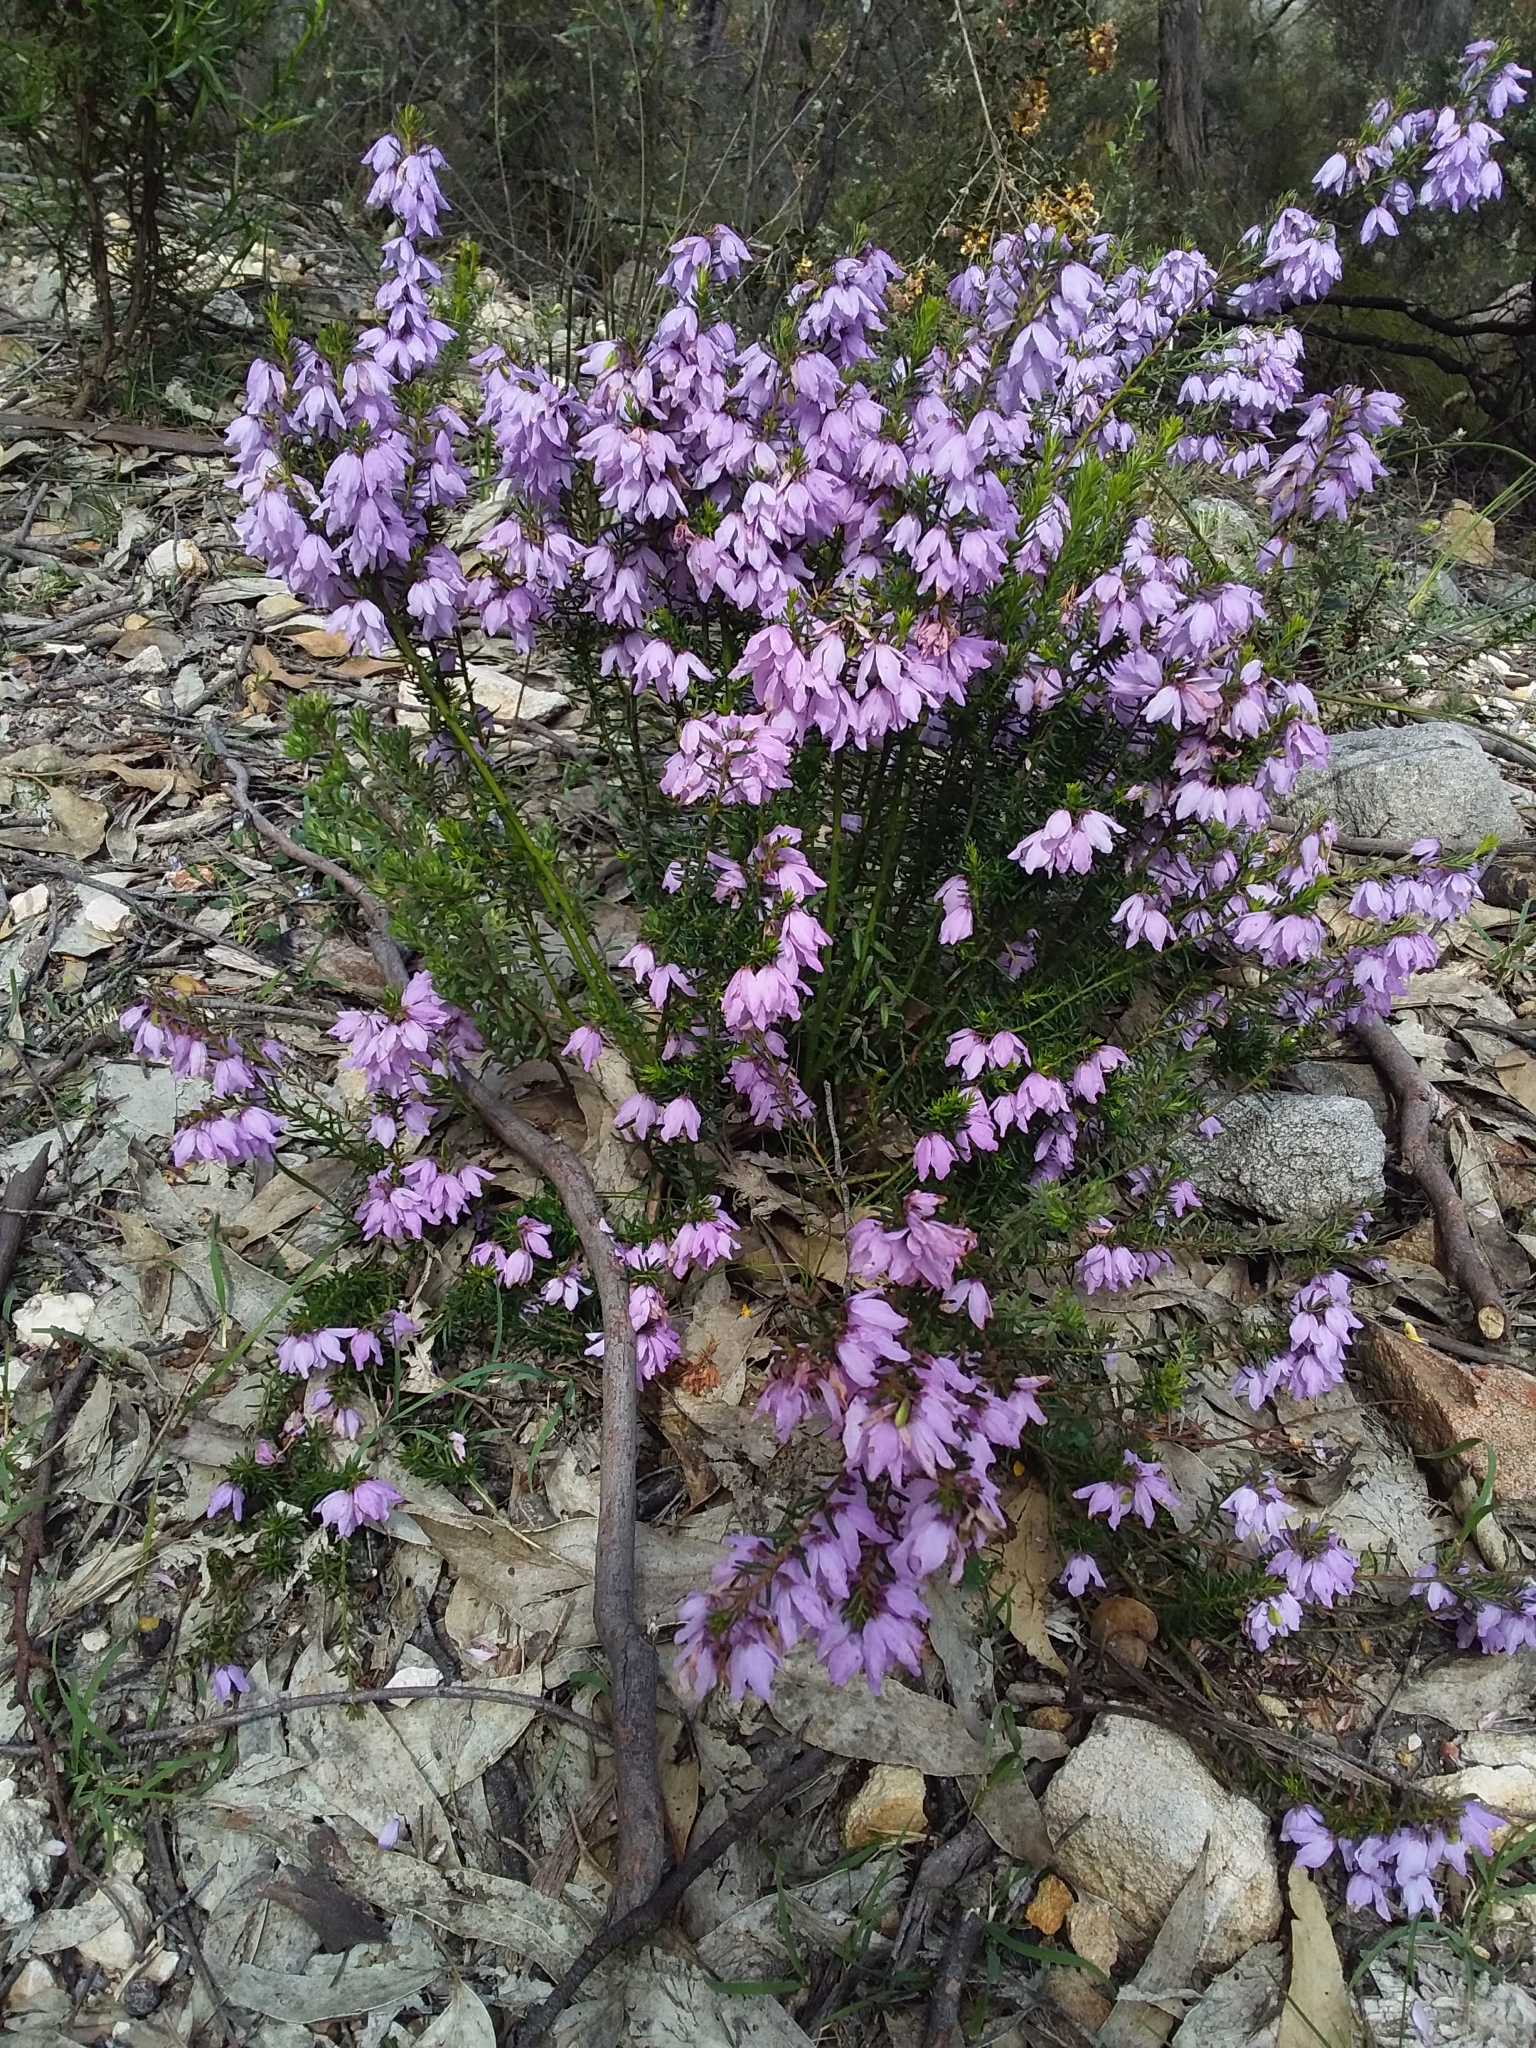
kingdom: Plantae
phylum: Tracheophyta
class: Magnoliopsida
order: Oxalidales
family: Elaeocarpaceae
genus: Tetratheca
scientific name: Tetratheca pilosa
